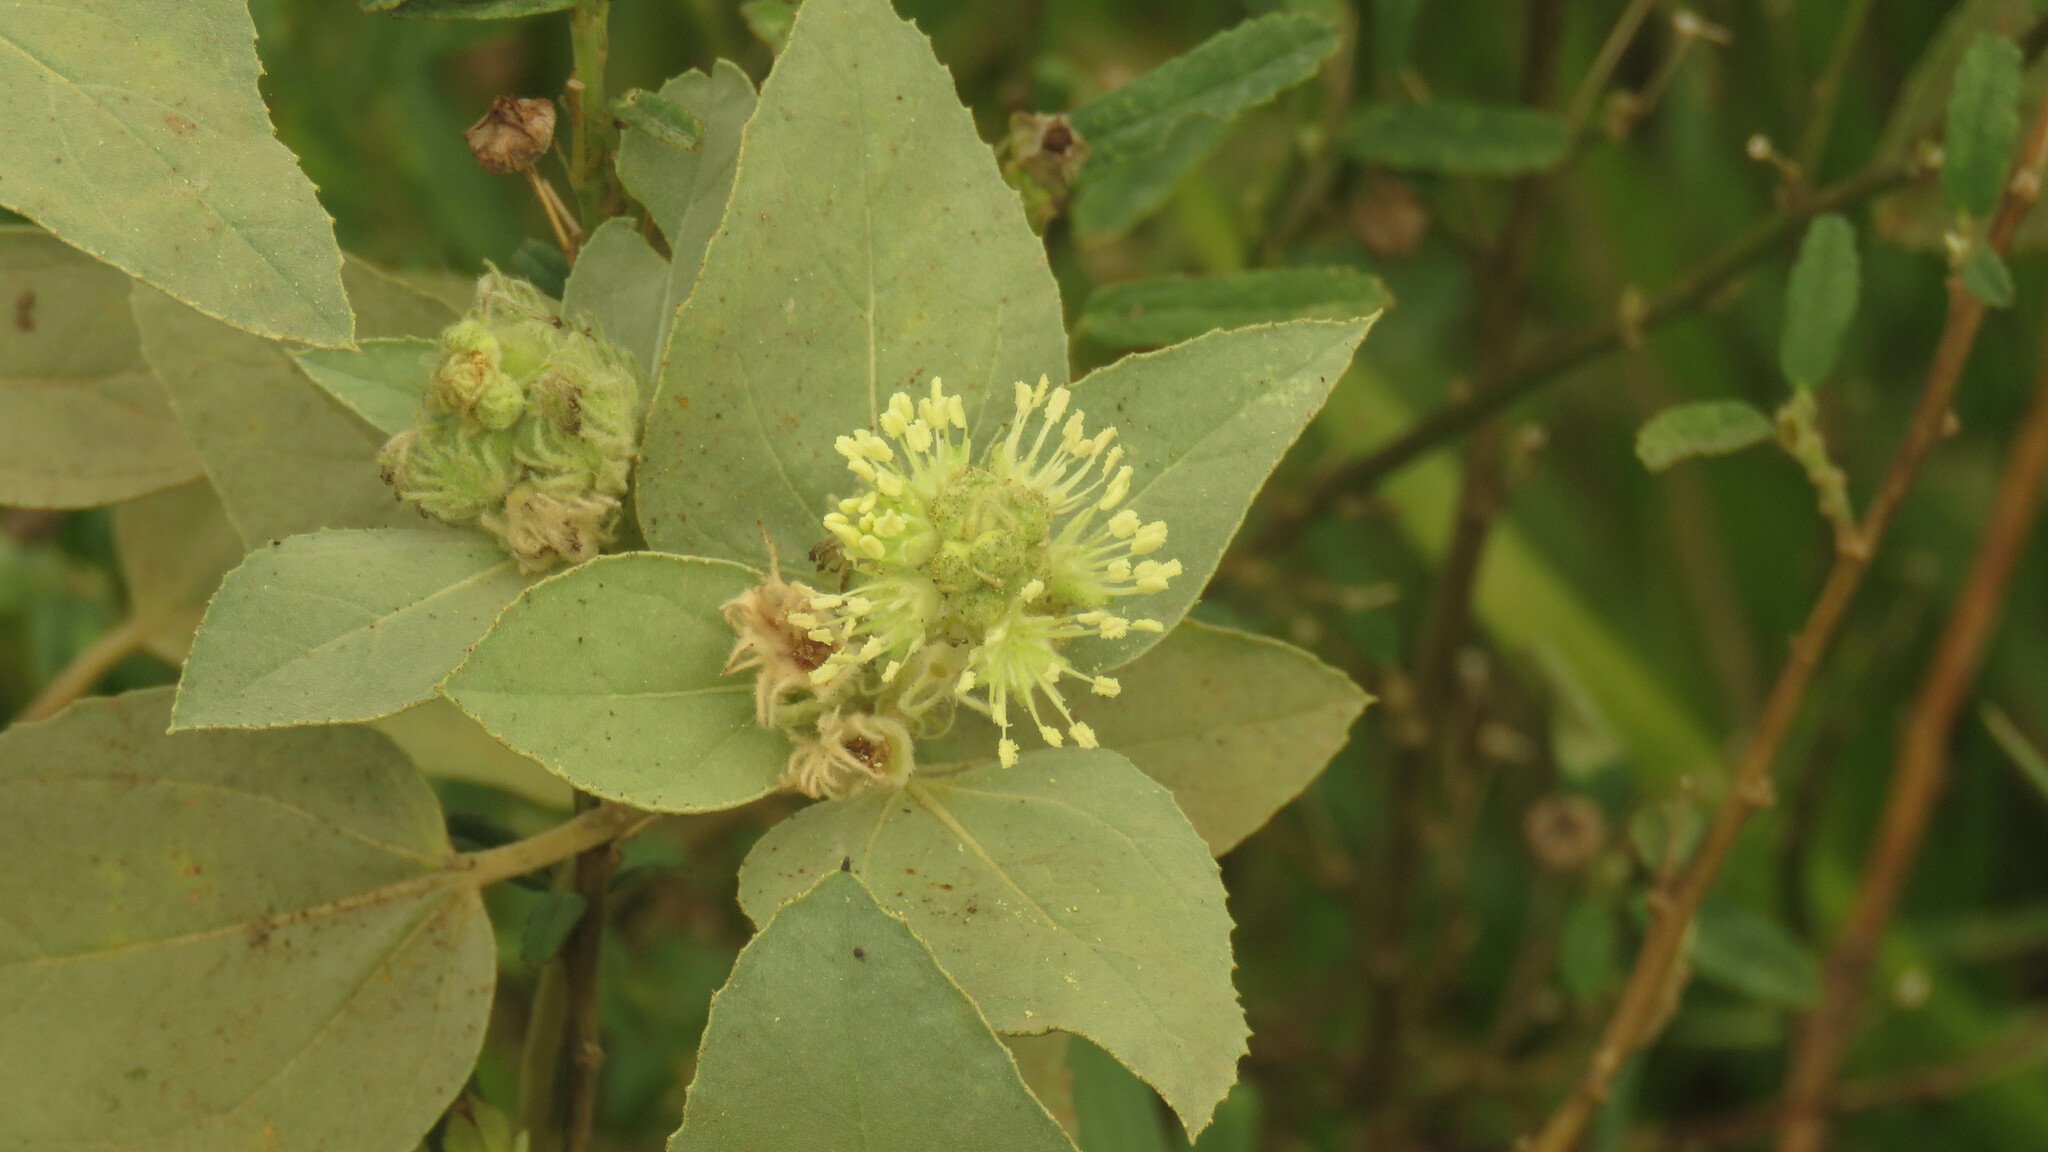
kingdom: Plantae
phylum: Tracheophyta
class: Magnoliopsida
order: Malpighiales
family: Euphorbiaceae
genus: Croton
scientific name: Croton solanaceus
